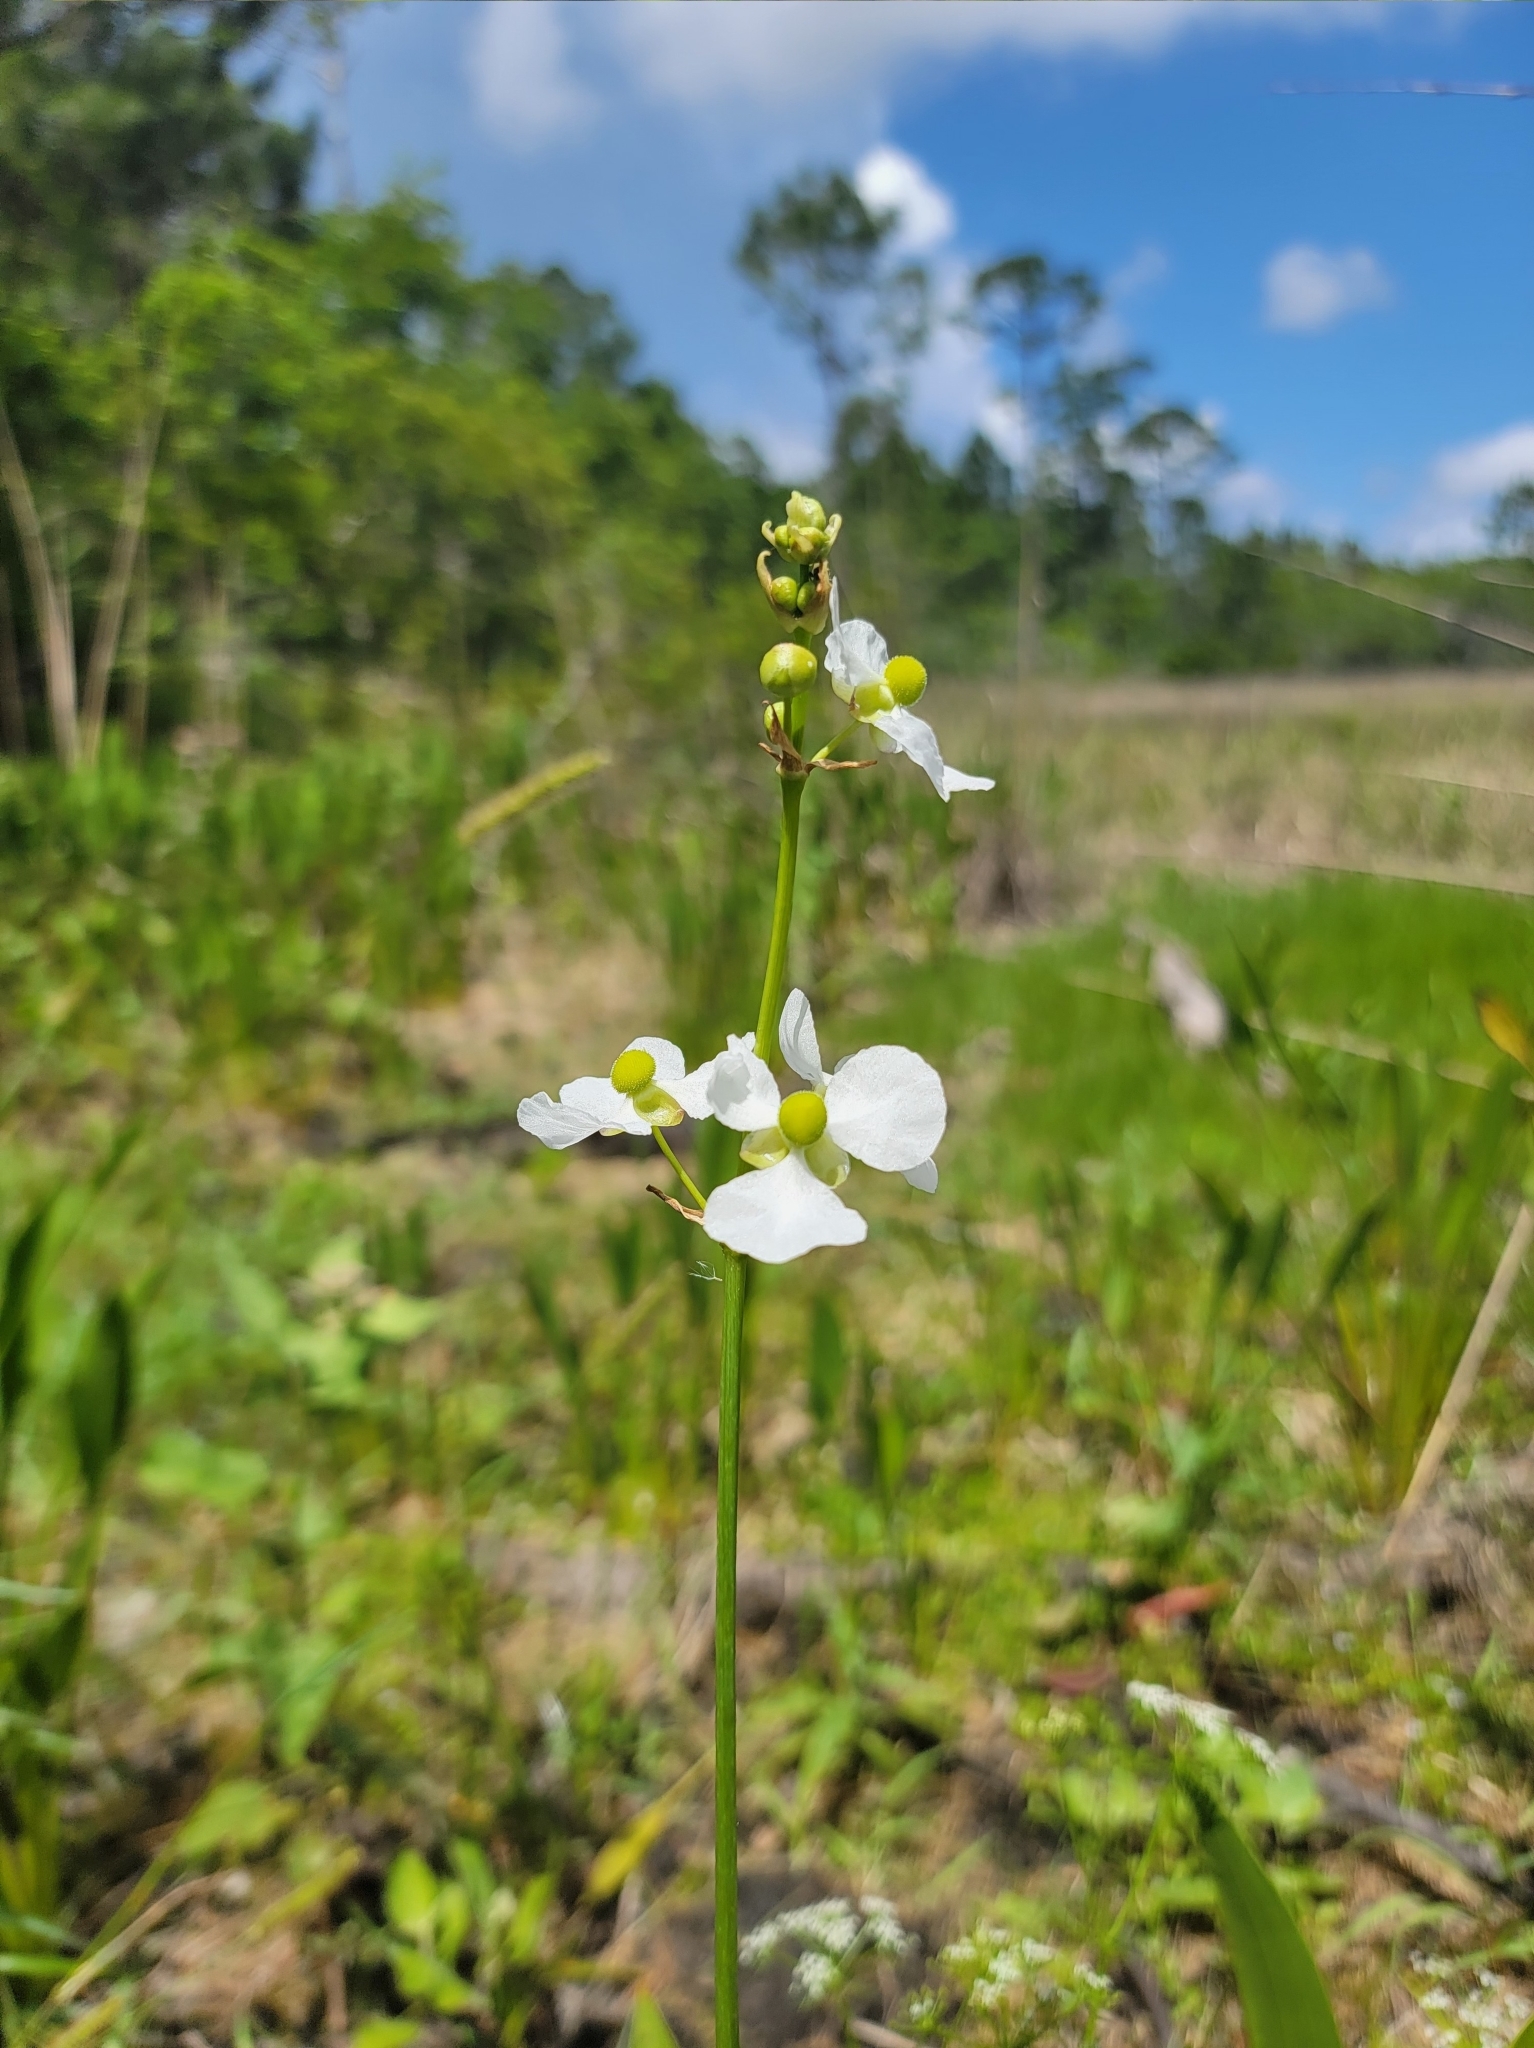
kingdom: Plantae
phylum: Tracheophyta
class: Liliopsida
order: Alismatales
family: Alismataceae
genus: Sagittaria
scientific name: Sagittaria lancifolia
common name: Lance-leaf arrowhead
